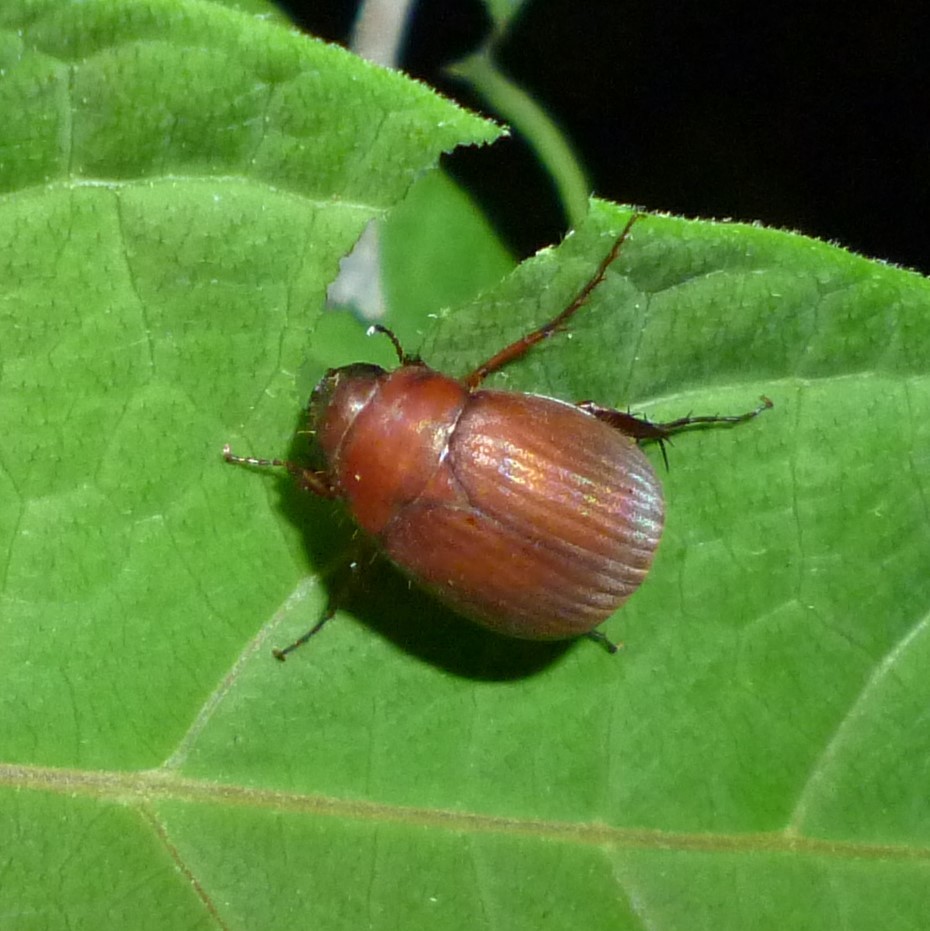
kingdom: Animalia
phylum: Arthropoda
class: Insecta
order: Coleoptera
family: Scarabaeidae
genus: Maladera
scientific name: Maladera formosae
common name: Asiatic garden beetle
